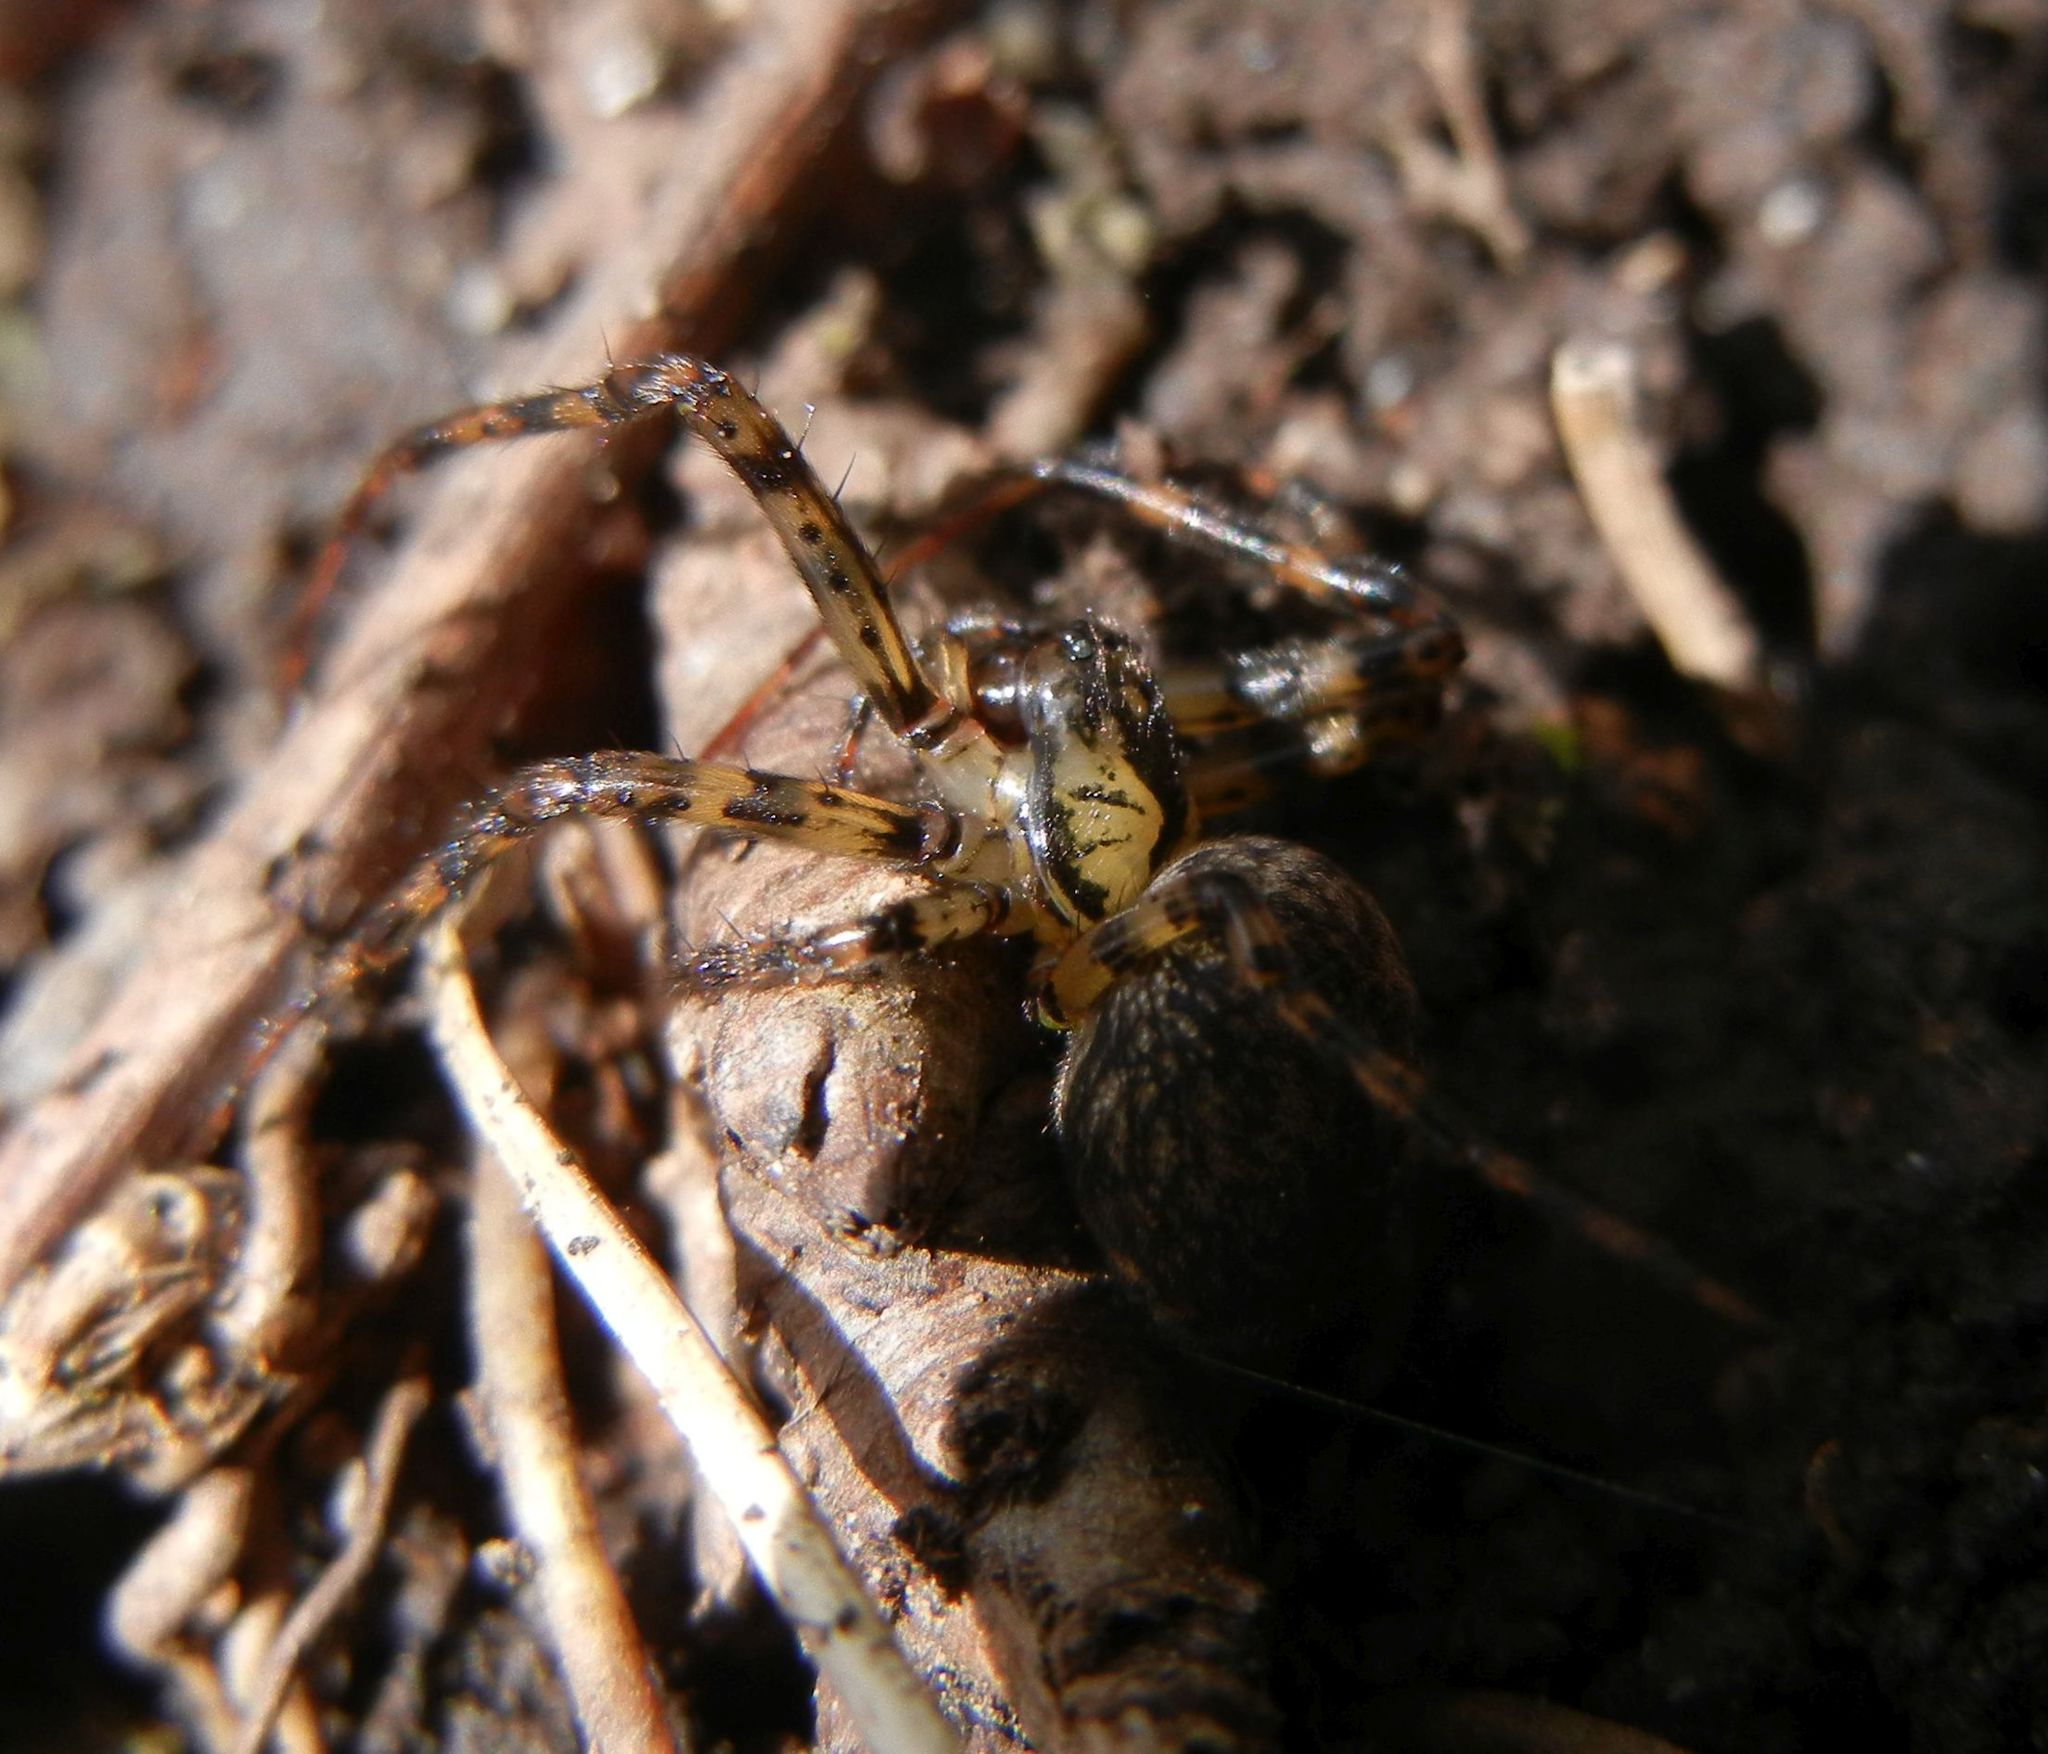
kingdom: Animalia
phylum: Arthropoda
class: Arachnida
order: Araneae
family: Tetragnathidae
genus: Metellina
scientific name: Metellina merianae
